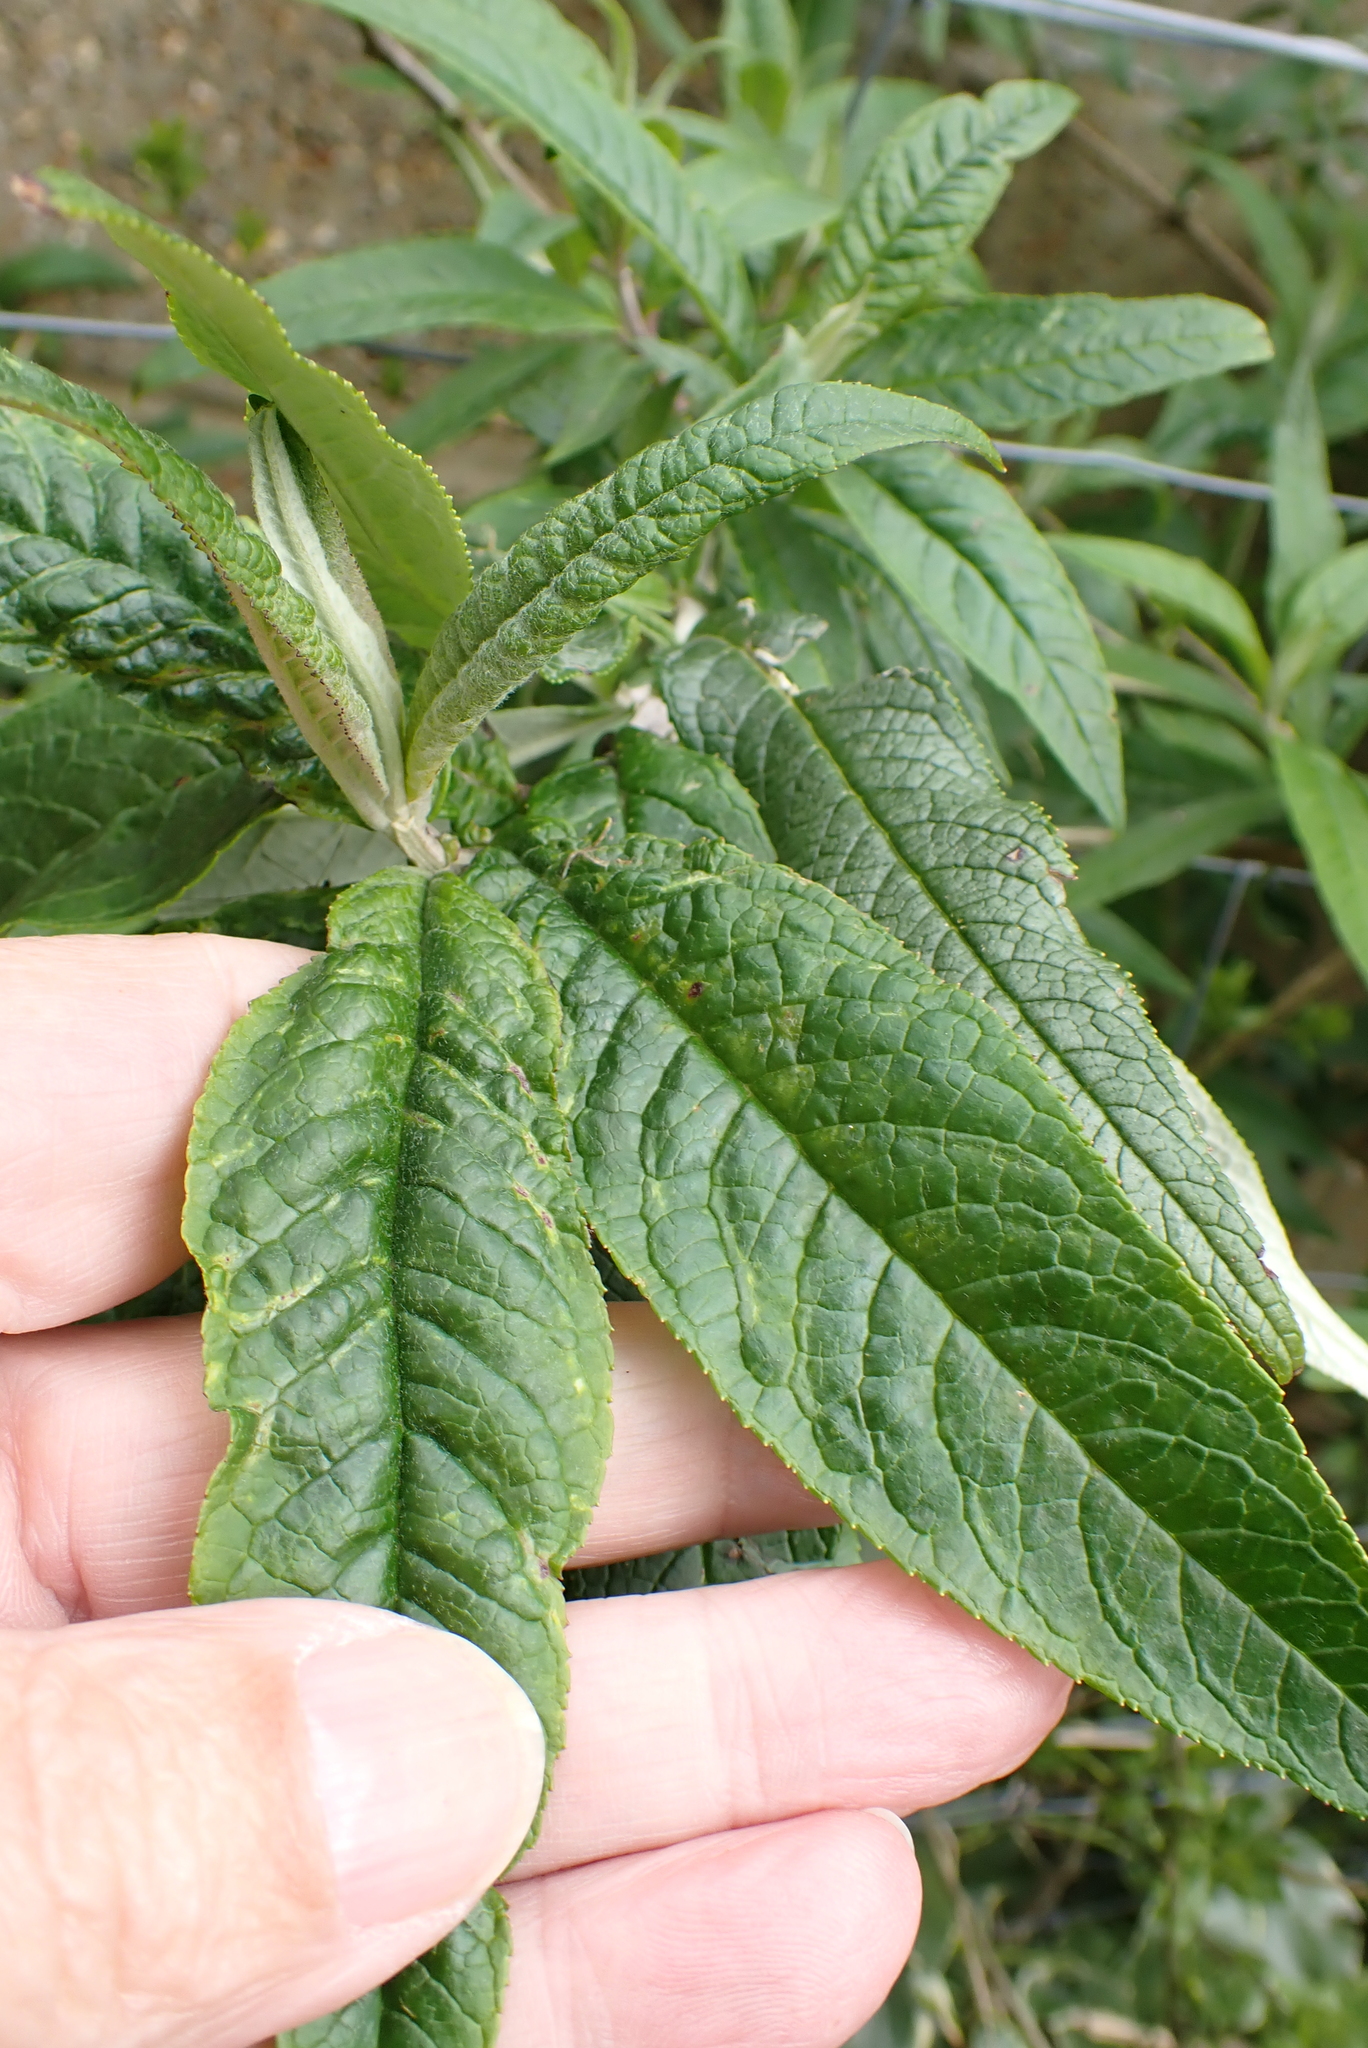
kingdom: Plantae
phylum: Tracheophyta
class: Magnoliopsida
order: Lamiales
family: Scrophulariaceae
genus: Buddleja
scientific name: Buddleja davidii
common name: Butterfly-bush
